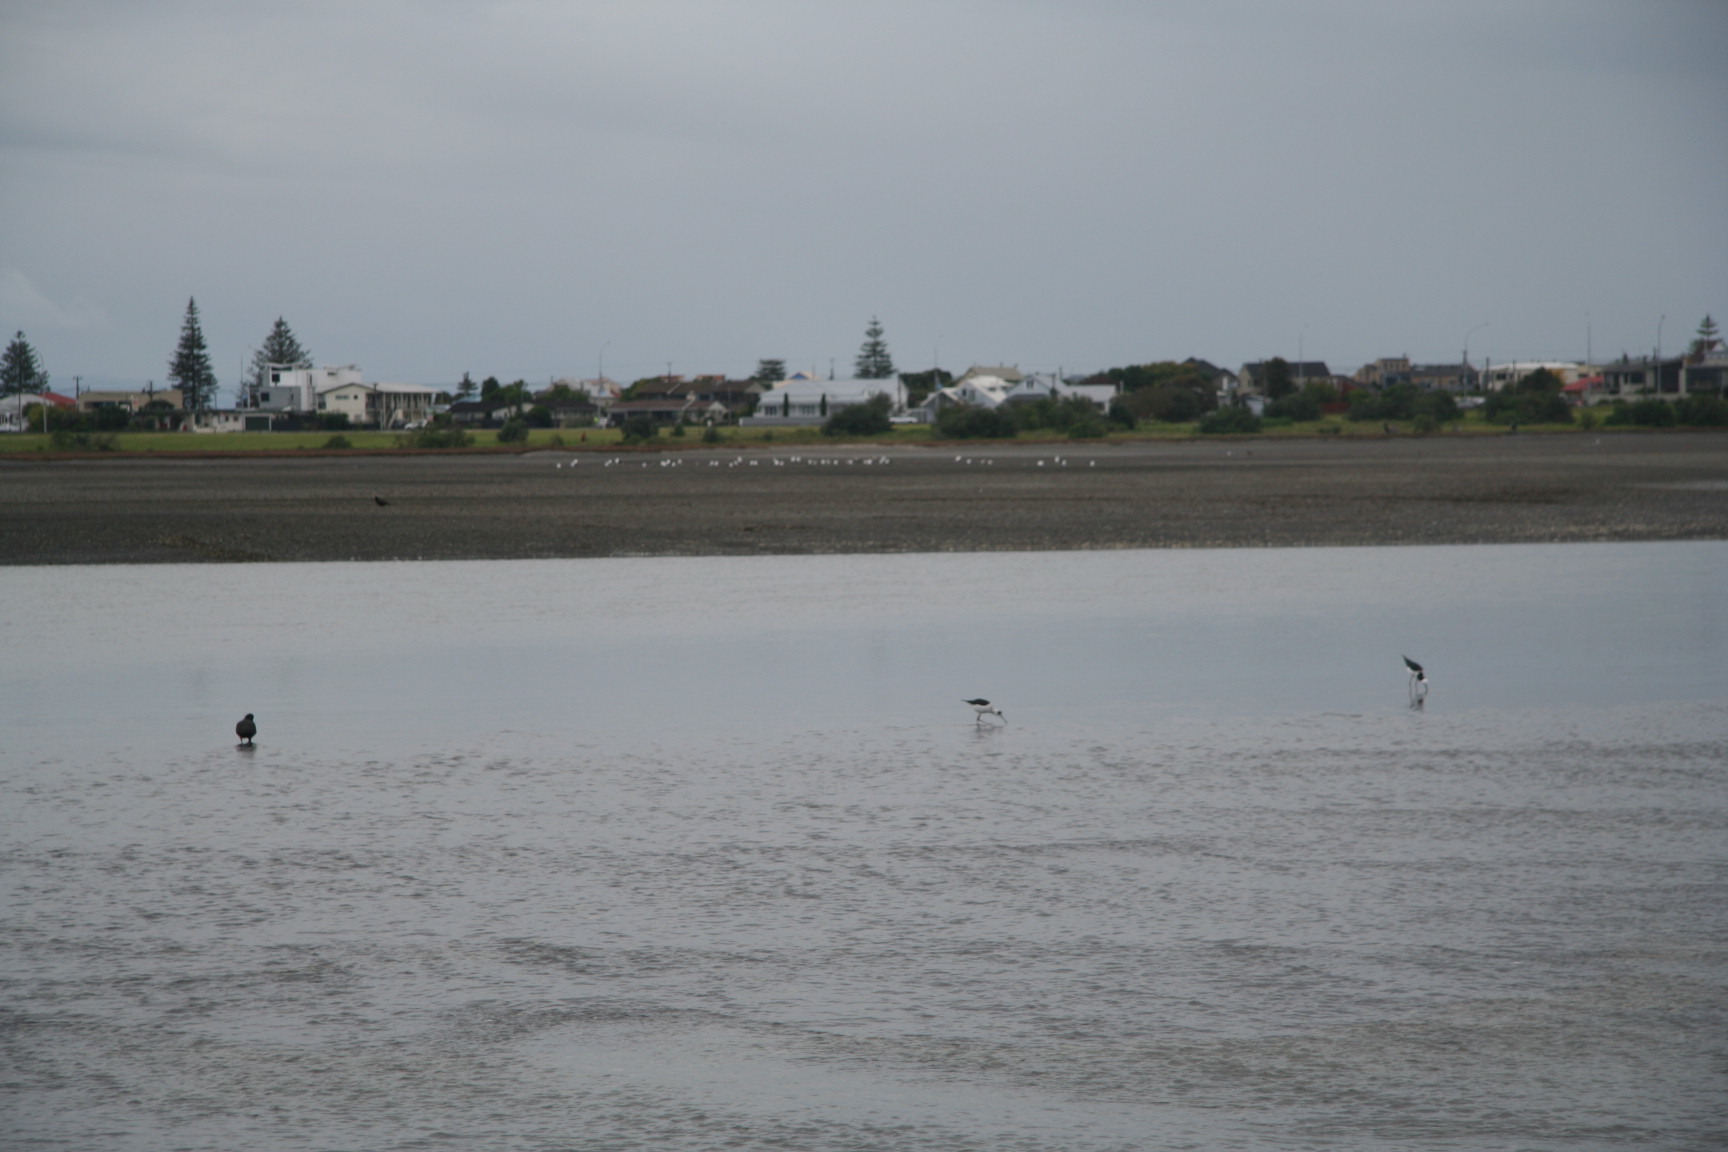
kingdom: Animalia
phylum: Chordata
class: Aves
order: Charadriiformes
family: Recurvirostridae
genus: Himantopus
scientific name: Himantopus leucocephalus
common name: White-headed stilt
